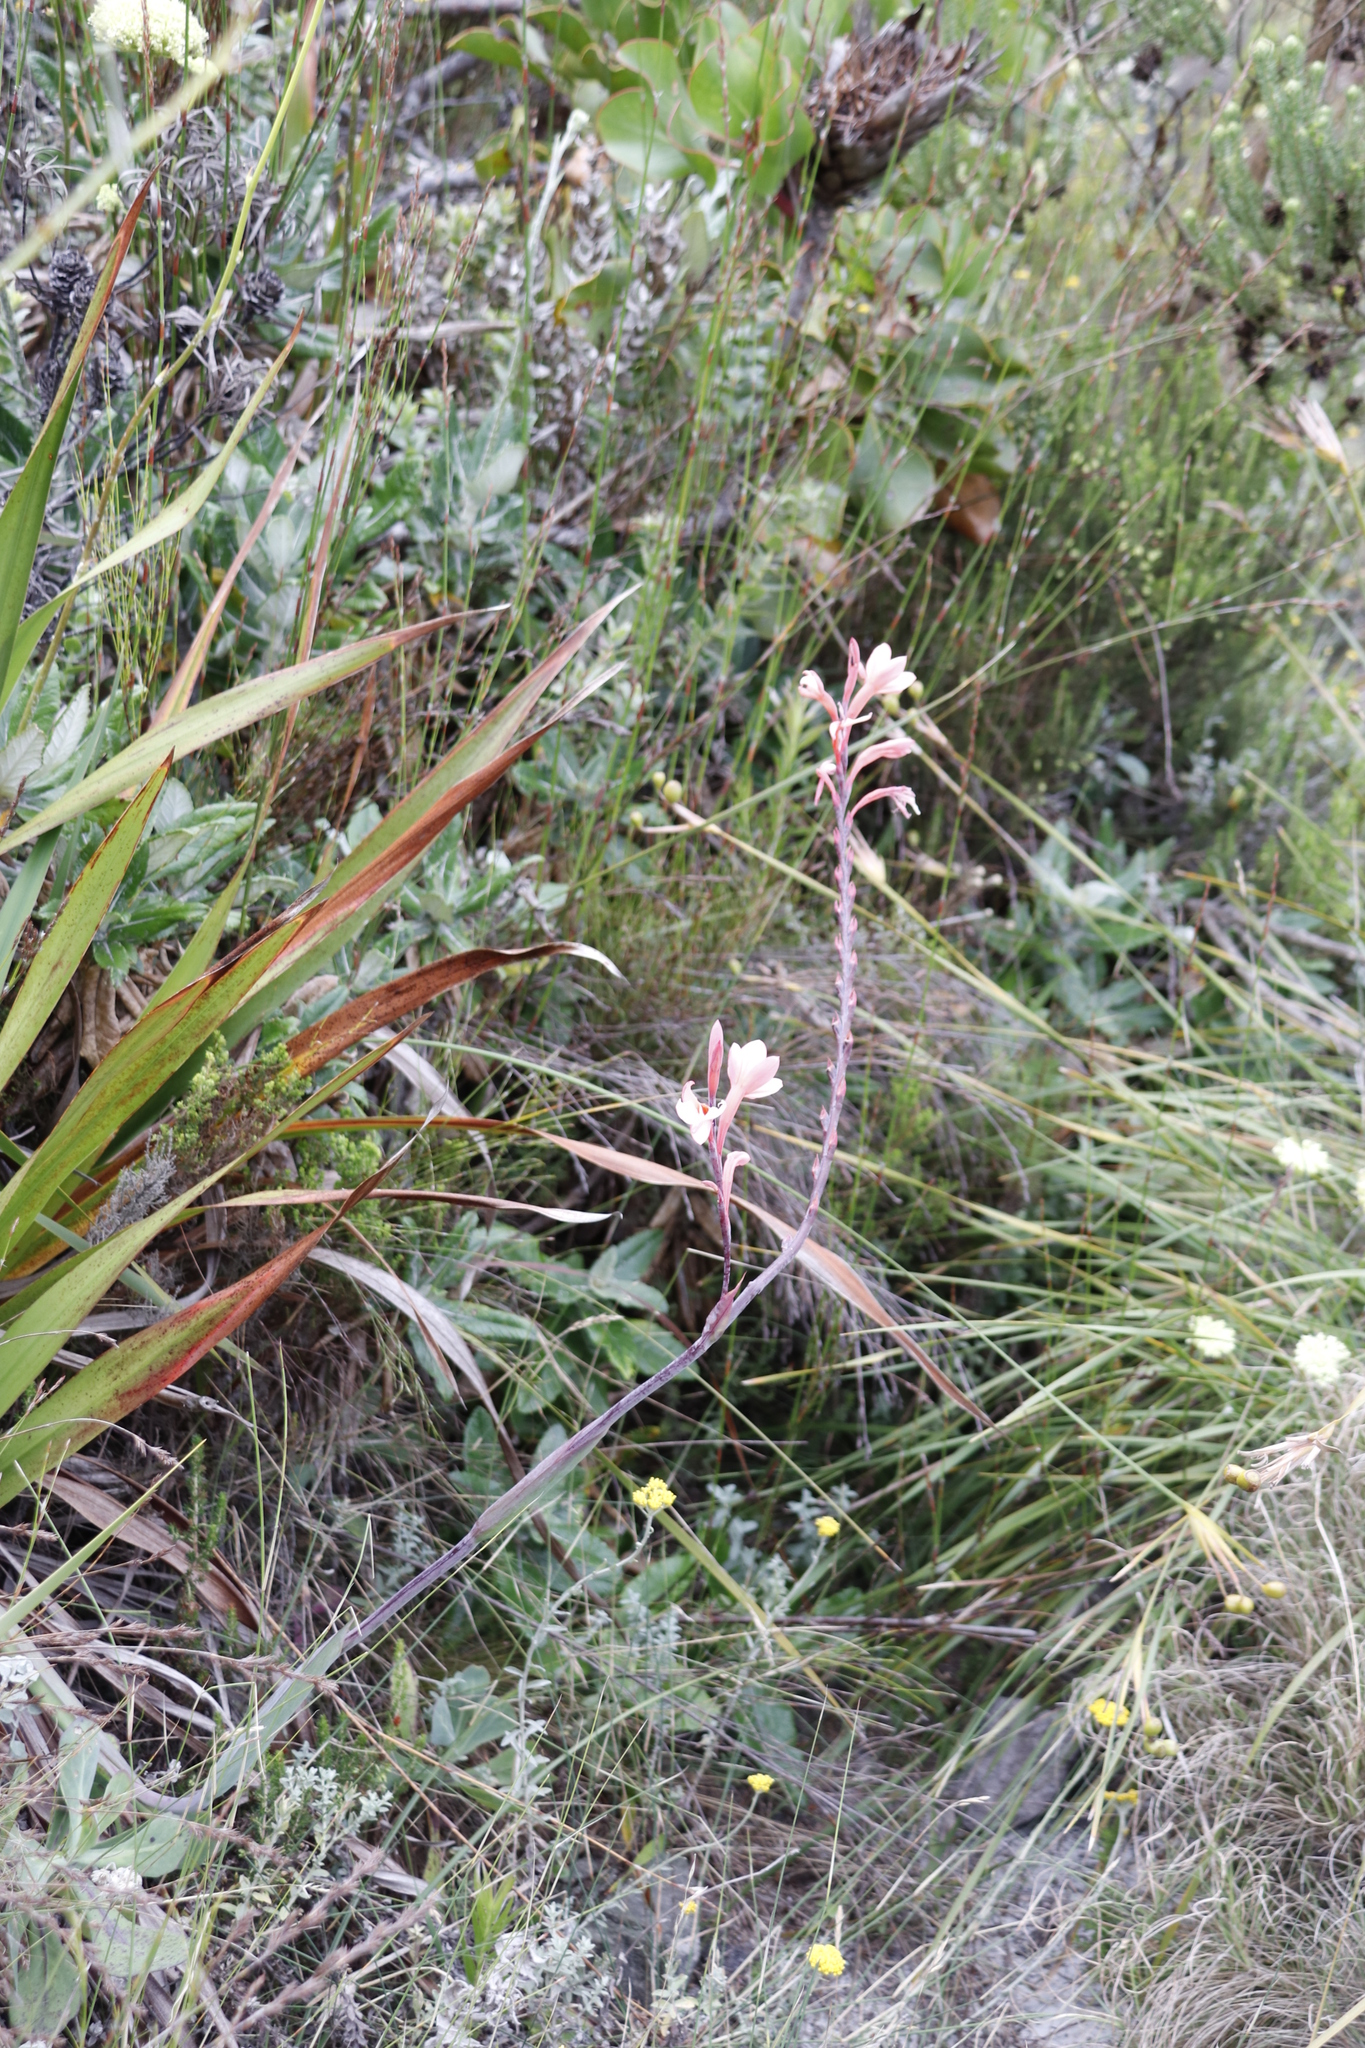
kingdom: Plantae
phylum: Tracheophyta
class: Liliopsida
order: Asparagales
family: Iridaceae
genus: Watsonia
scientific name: Watsonia tabularis
